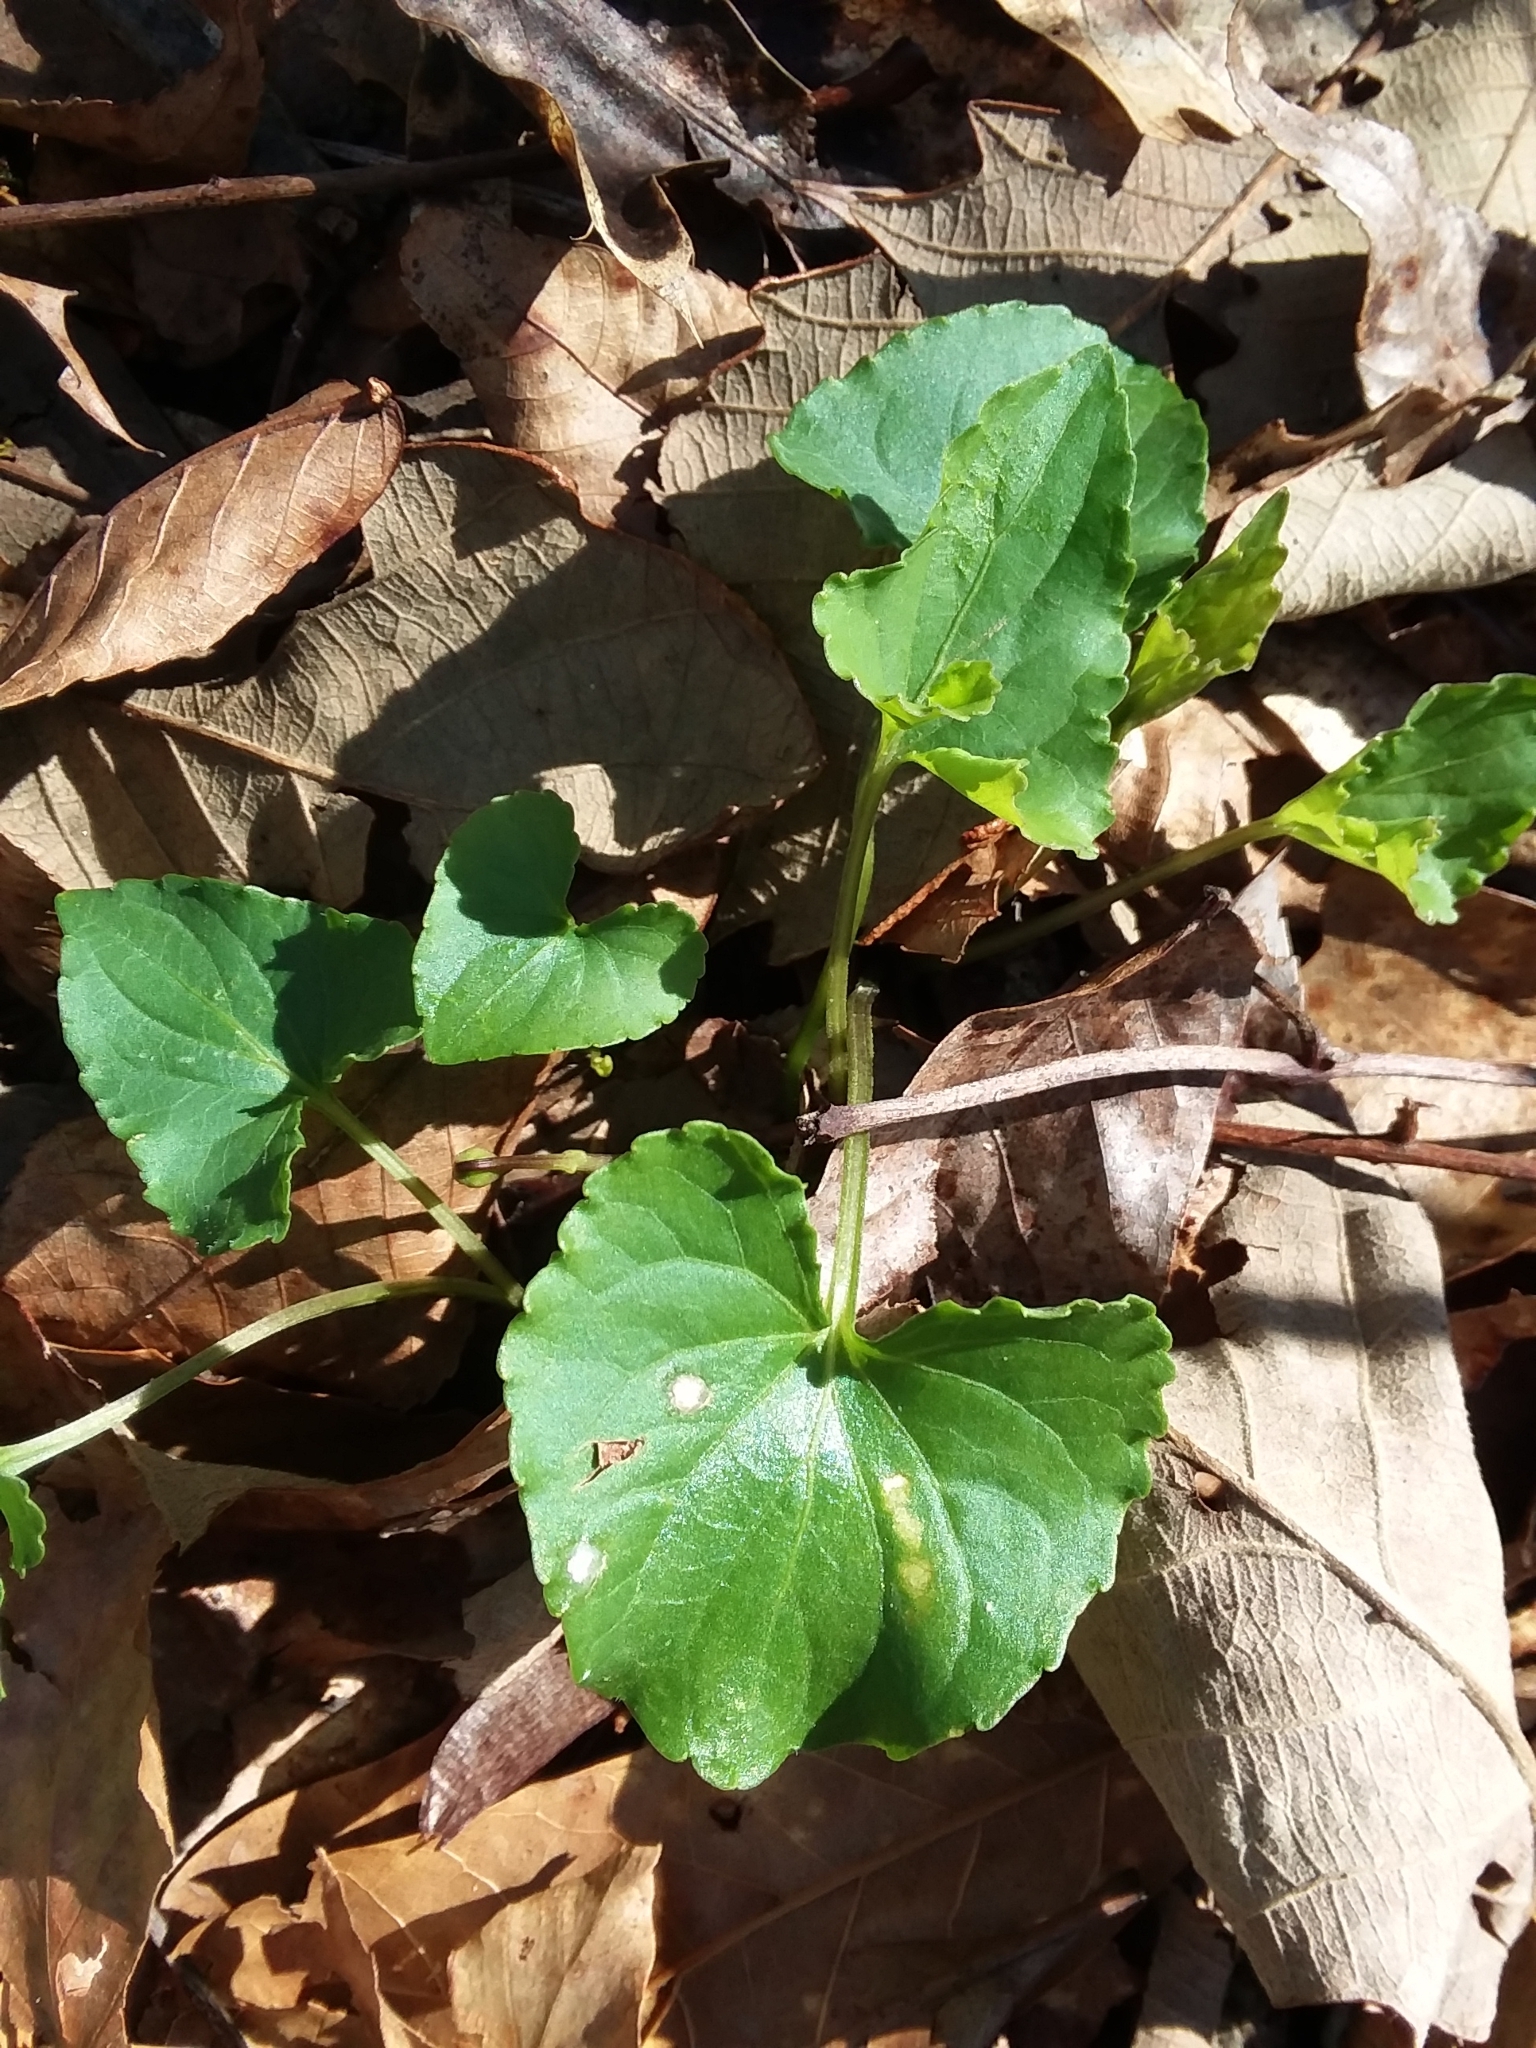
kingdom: Plantae
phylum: Tracheophyta
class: Magnoliopsida
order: Malpighiales
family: Violaceae
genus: Viola
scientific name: Viola sororia
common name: Dooryard violet
